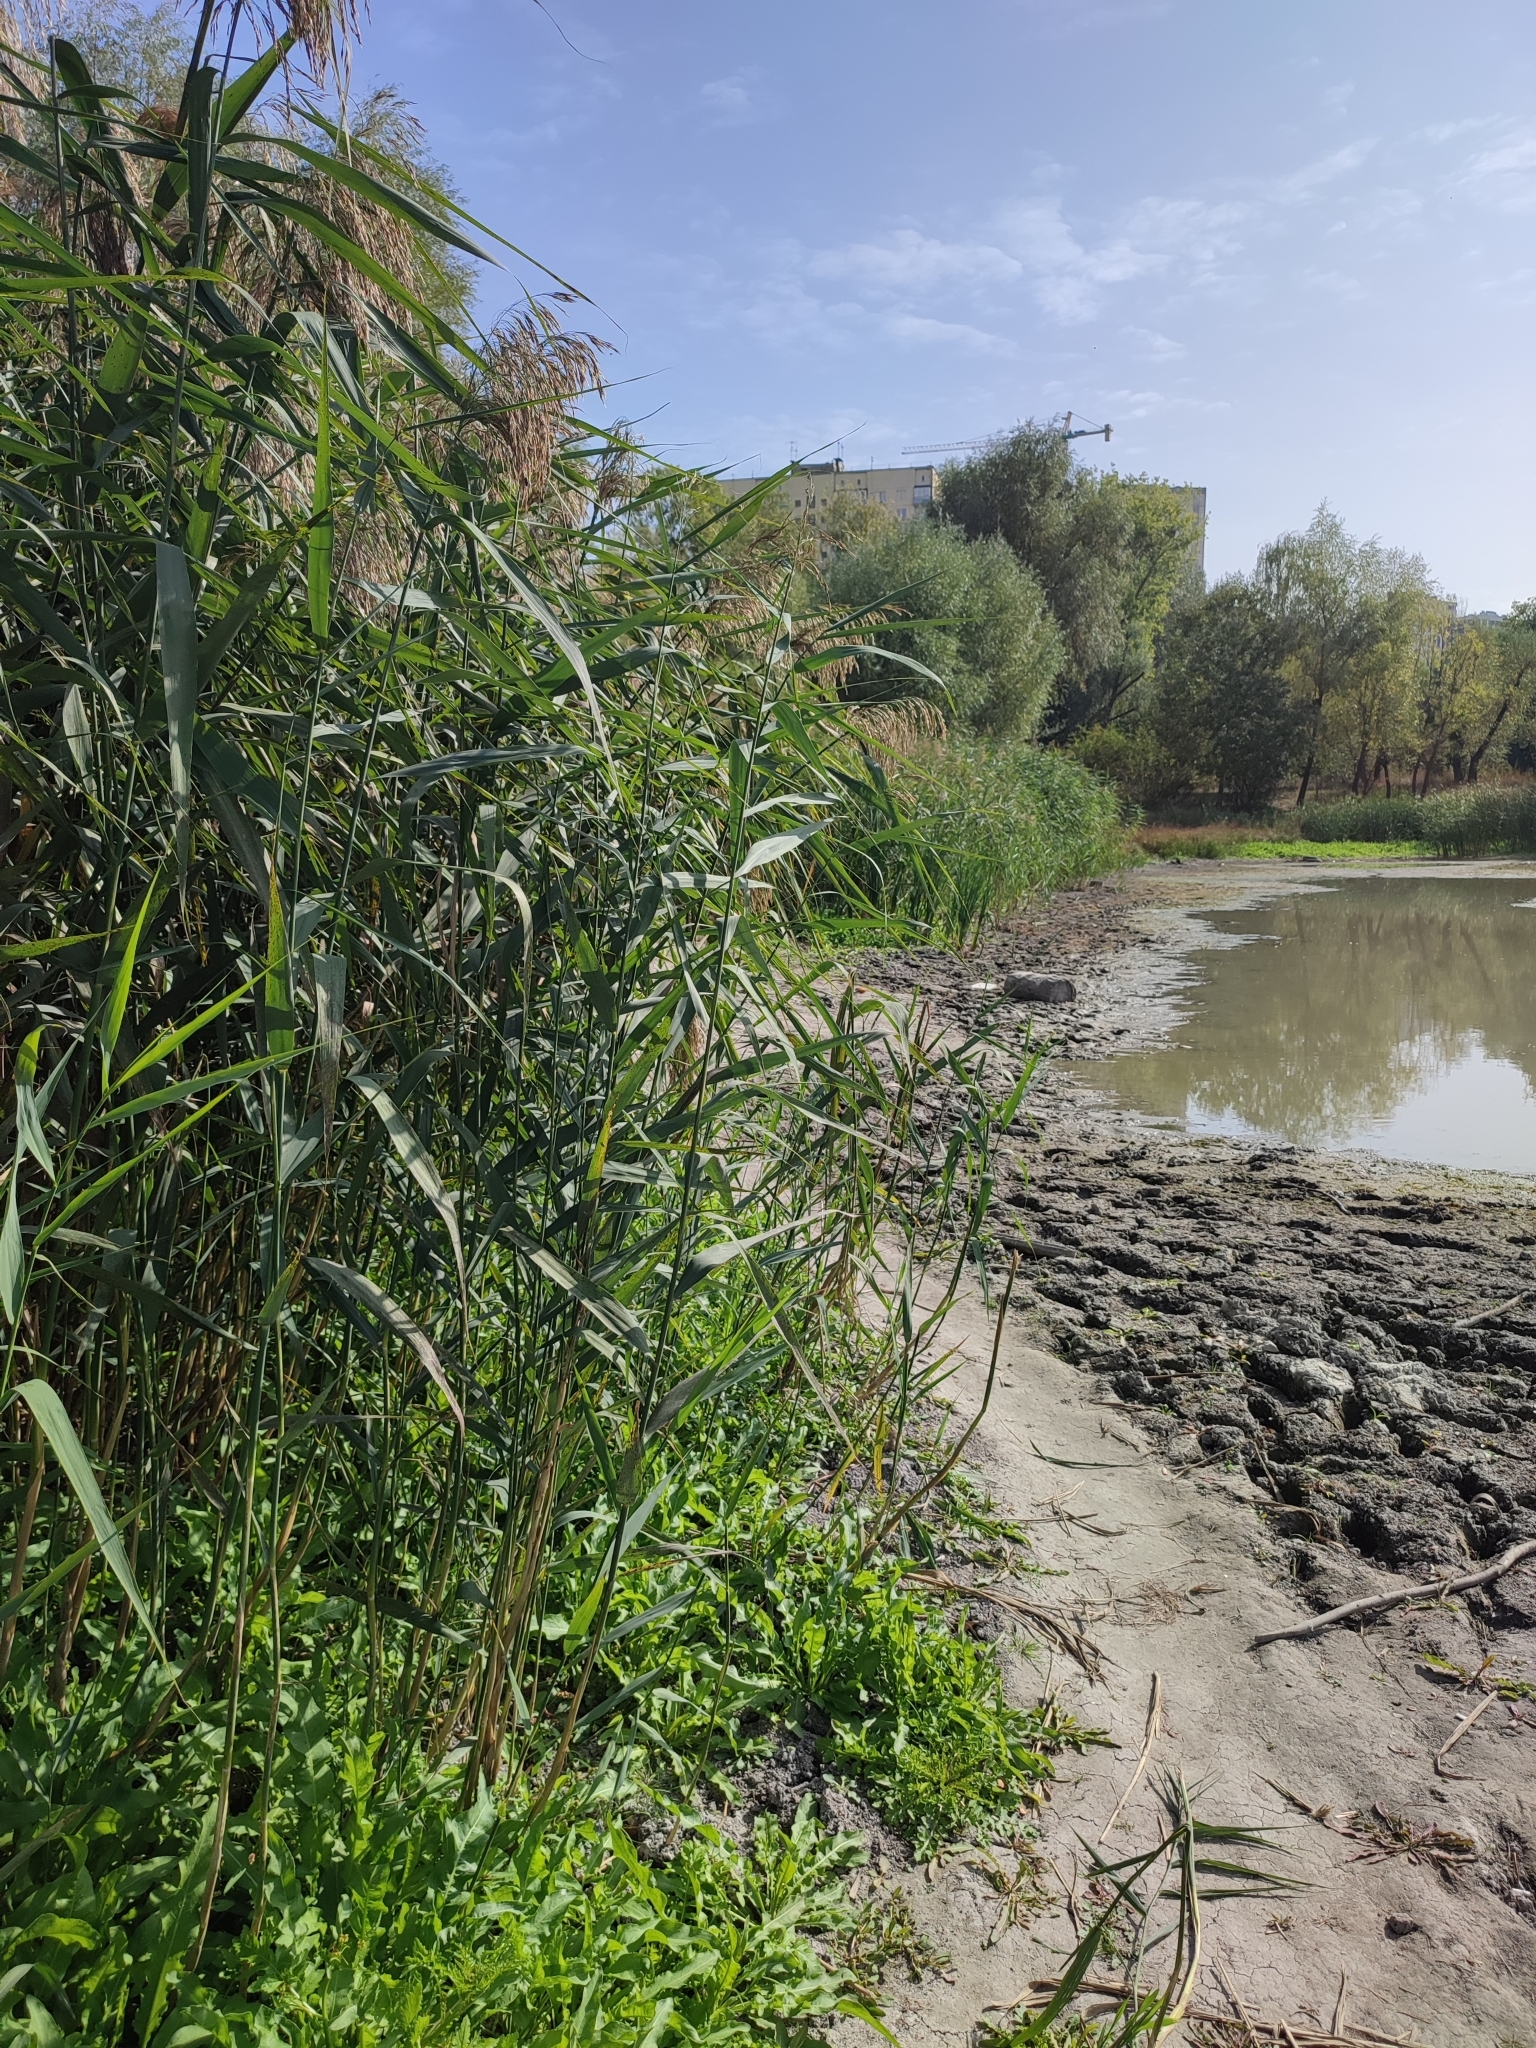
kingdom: Plantae
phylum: Tracheophyta
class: Liliopsida
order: Poales
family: Poaceae
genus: Phragmites
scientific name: Phragmites australis
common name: Common reed
